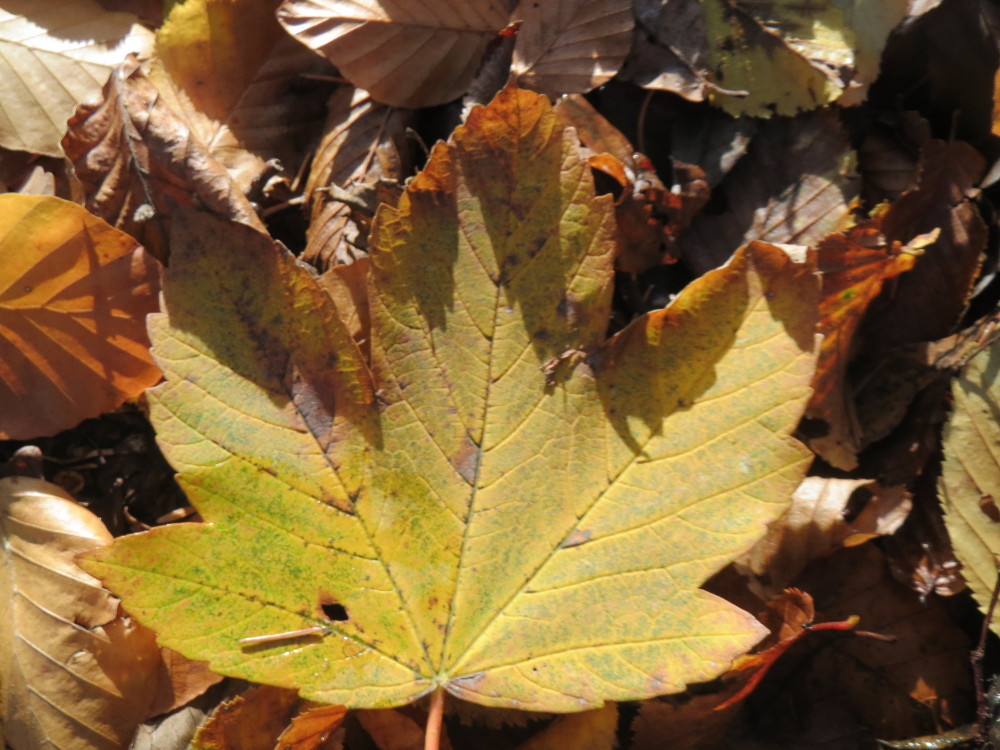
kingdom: Plantae
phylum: Tracheophyta
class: Magnoliopsida
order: Sapindales
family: Sapindaceae
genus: Acer
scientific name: Acer pseudoplatanus
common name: Sycamore
